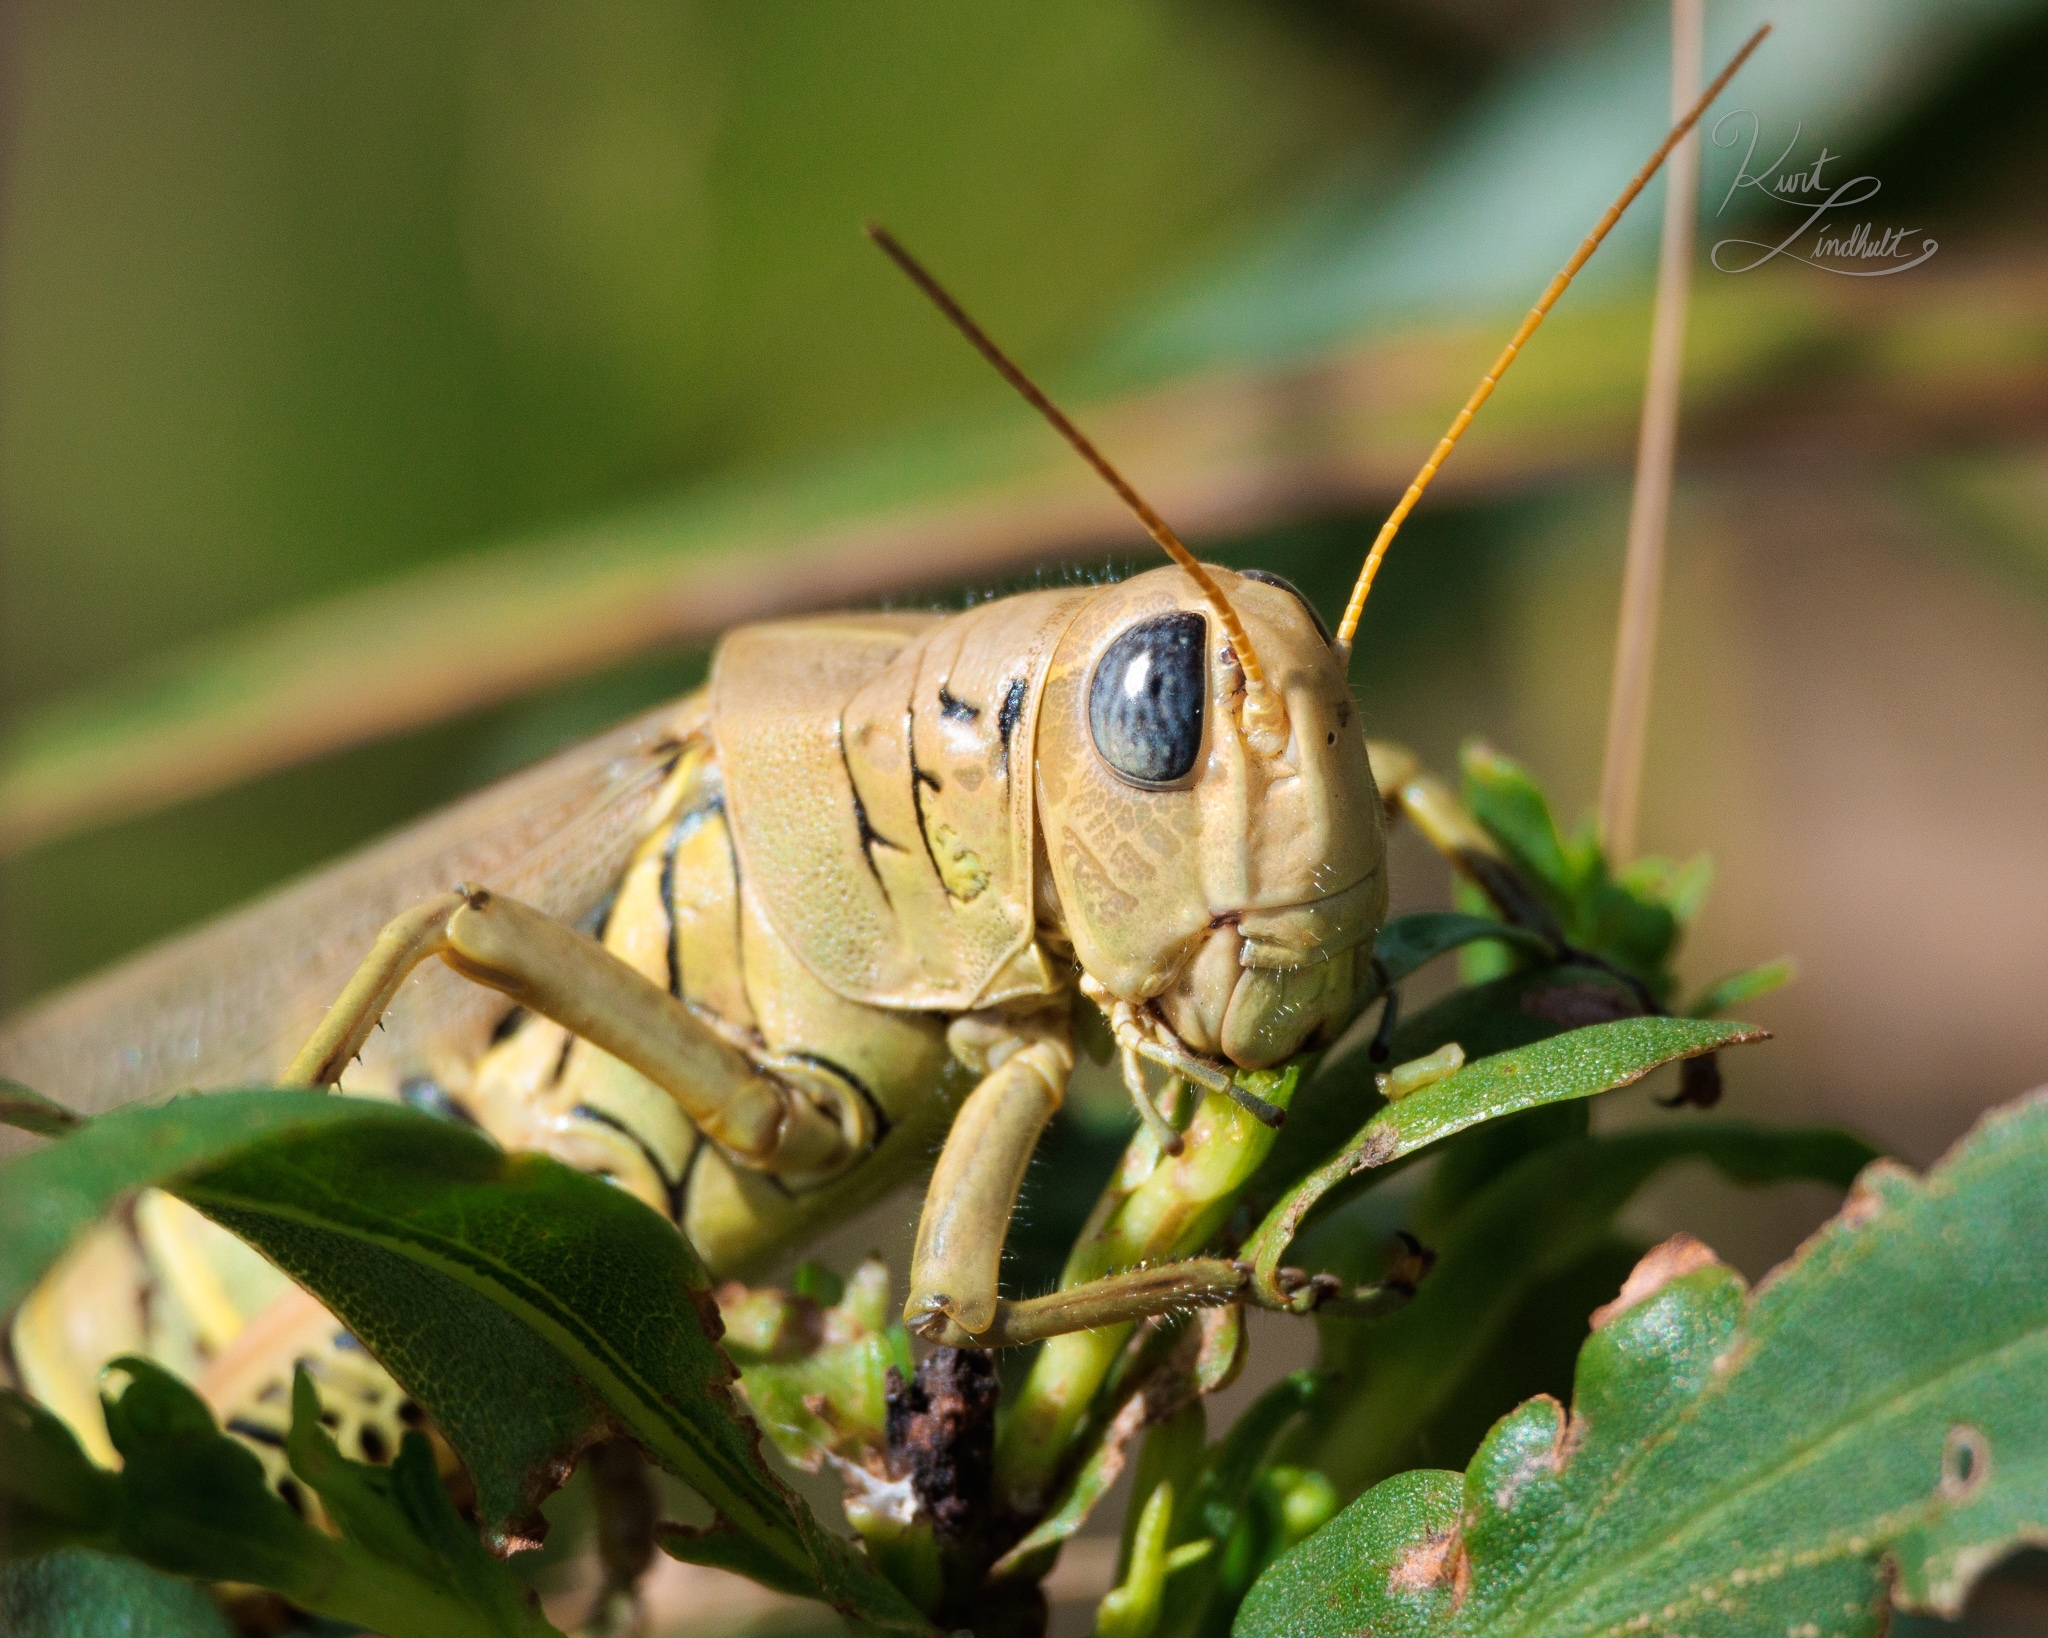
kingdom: Animalia
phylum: Arthropoda
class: Insecta
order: Orthoptera
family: Acrididae
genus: Melanoplus
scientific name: Melanoplus differentialis
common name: Differential grasshopper
